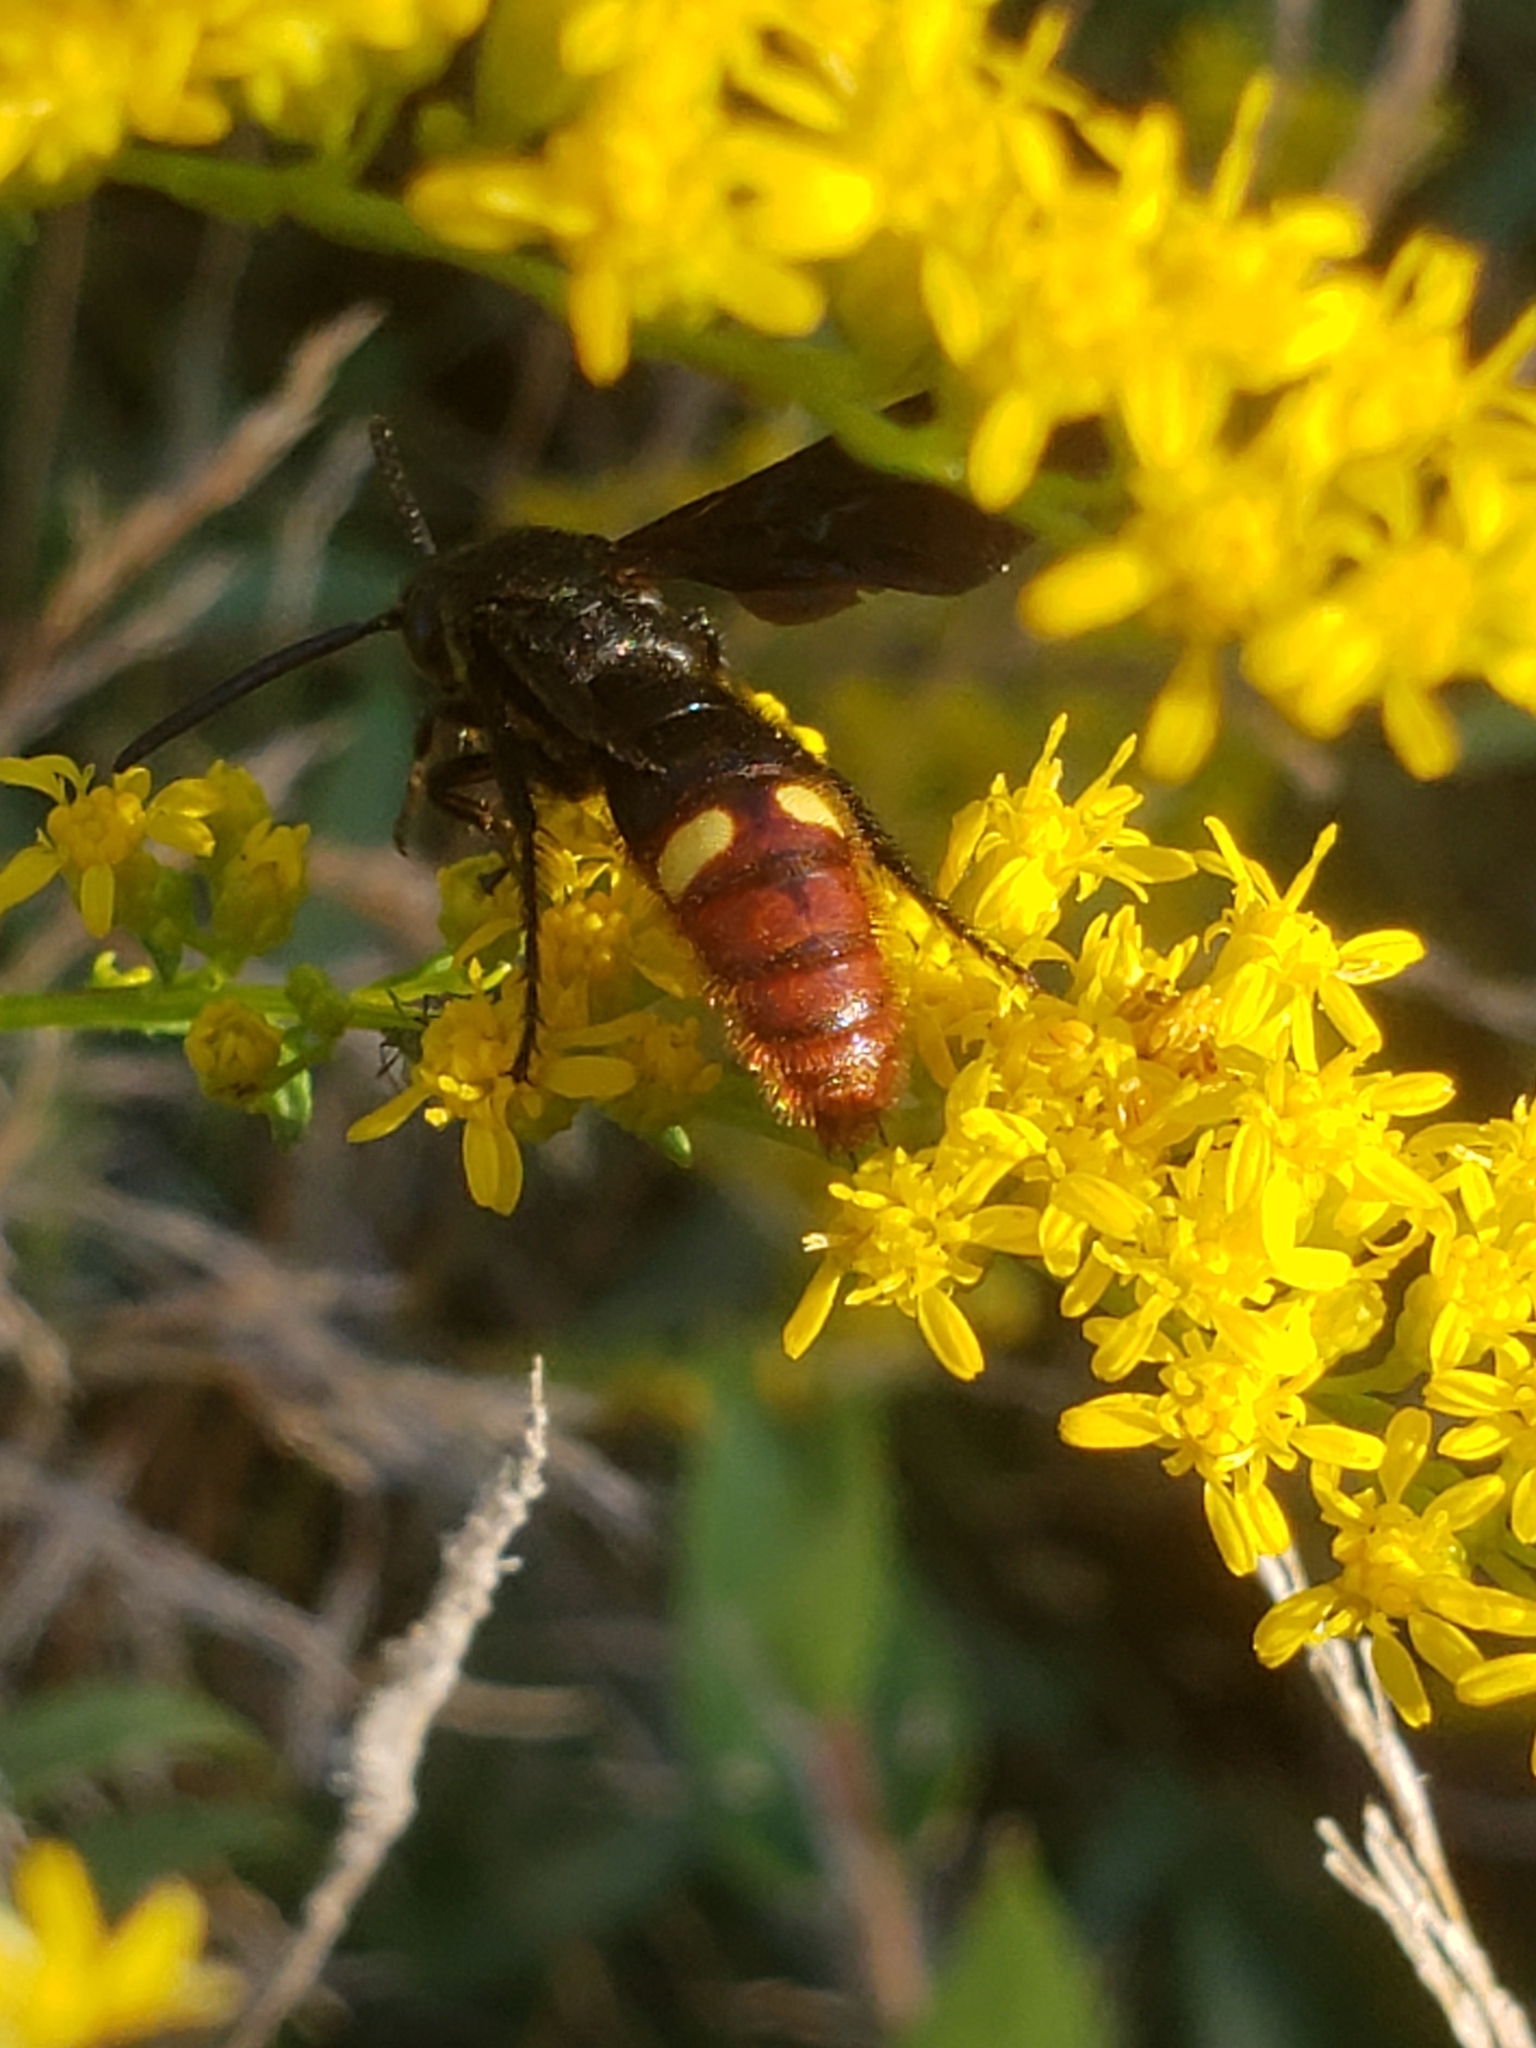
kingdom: Animalia
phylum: Arthropoda
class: Insecta
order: Hymenoptera
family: Scoliidae
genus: Scolia
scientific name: Scolia dubia
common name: Blue-winged scoliid wasp
